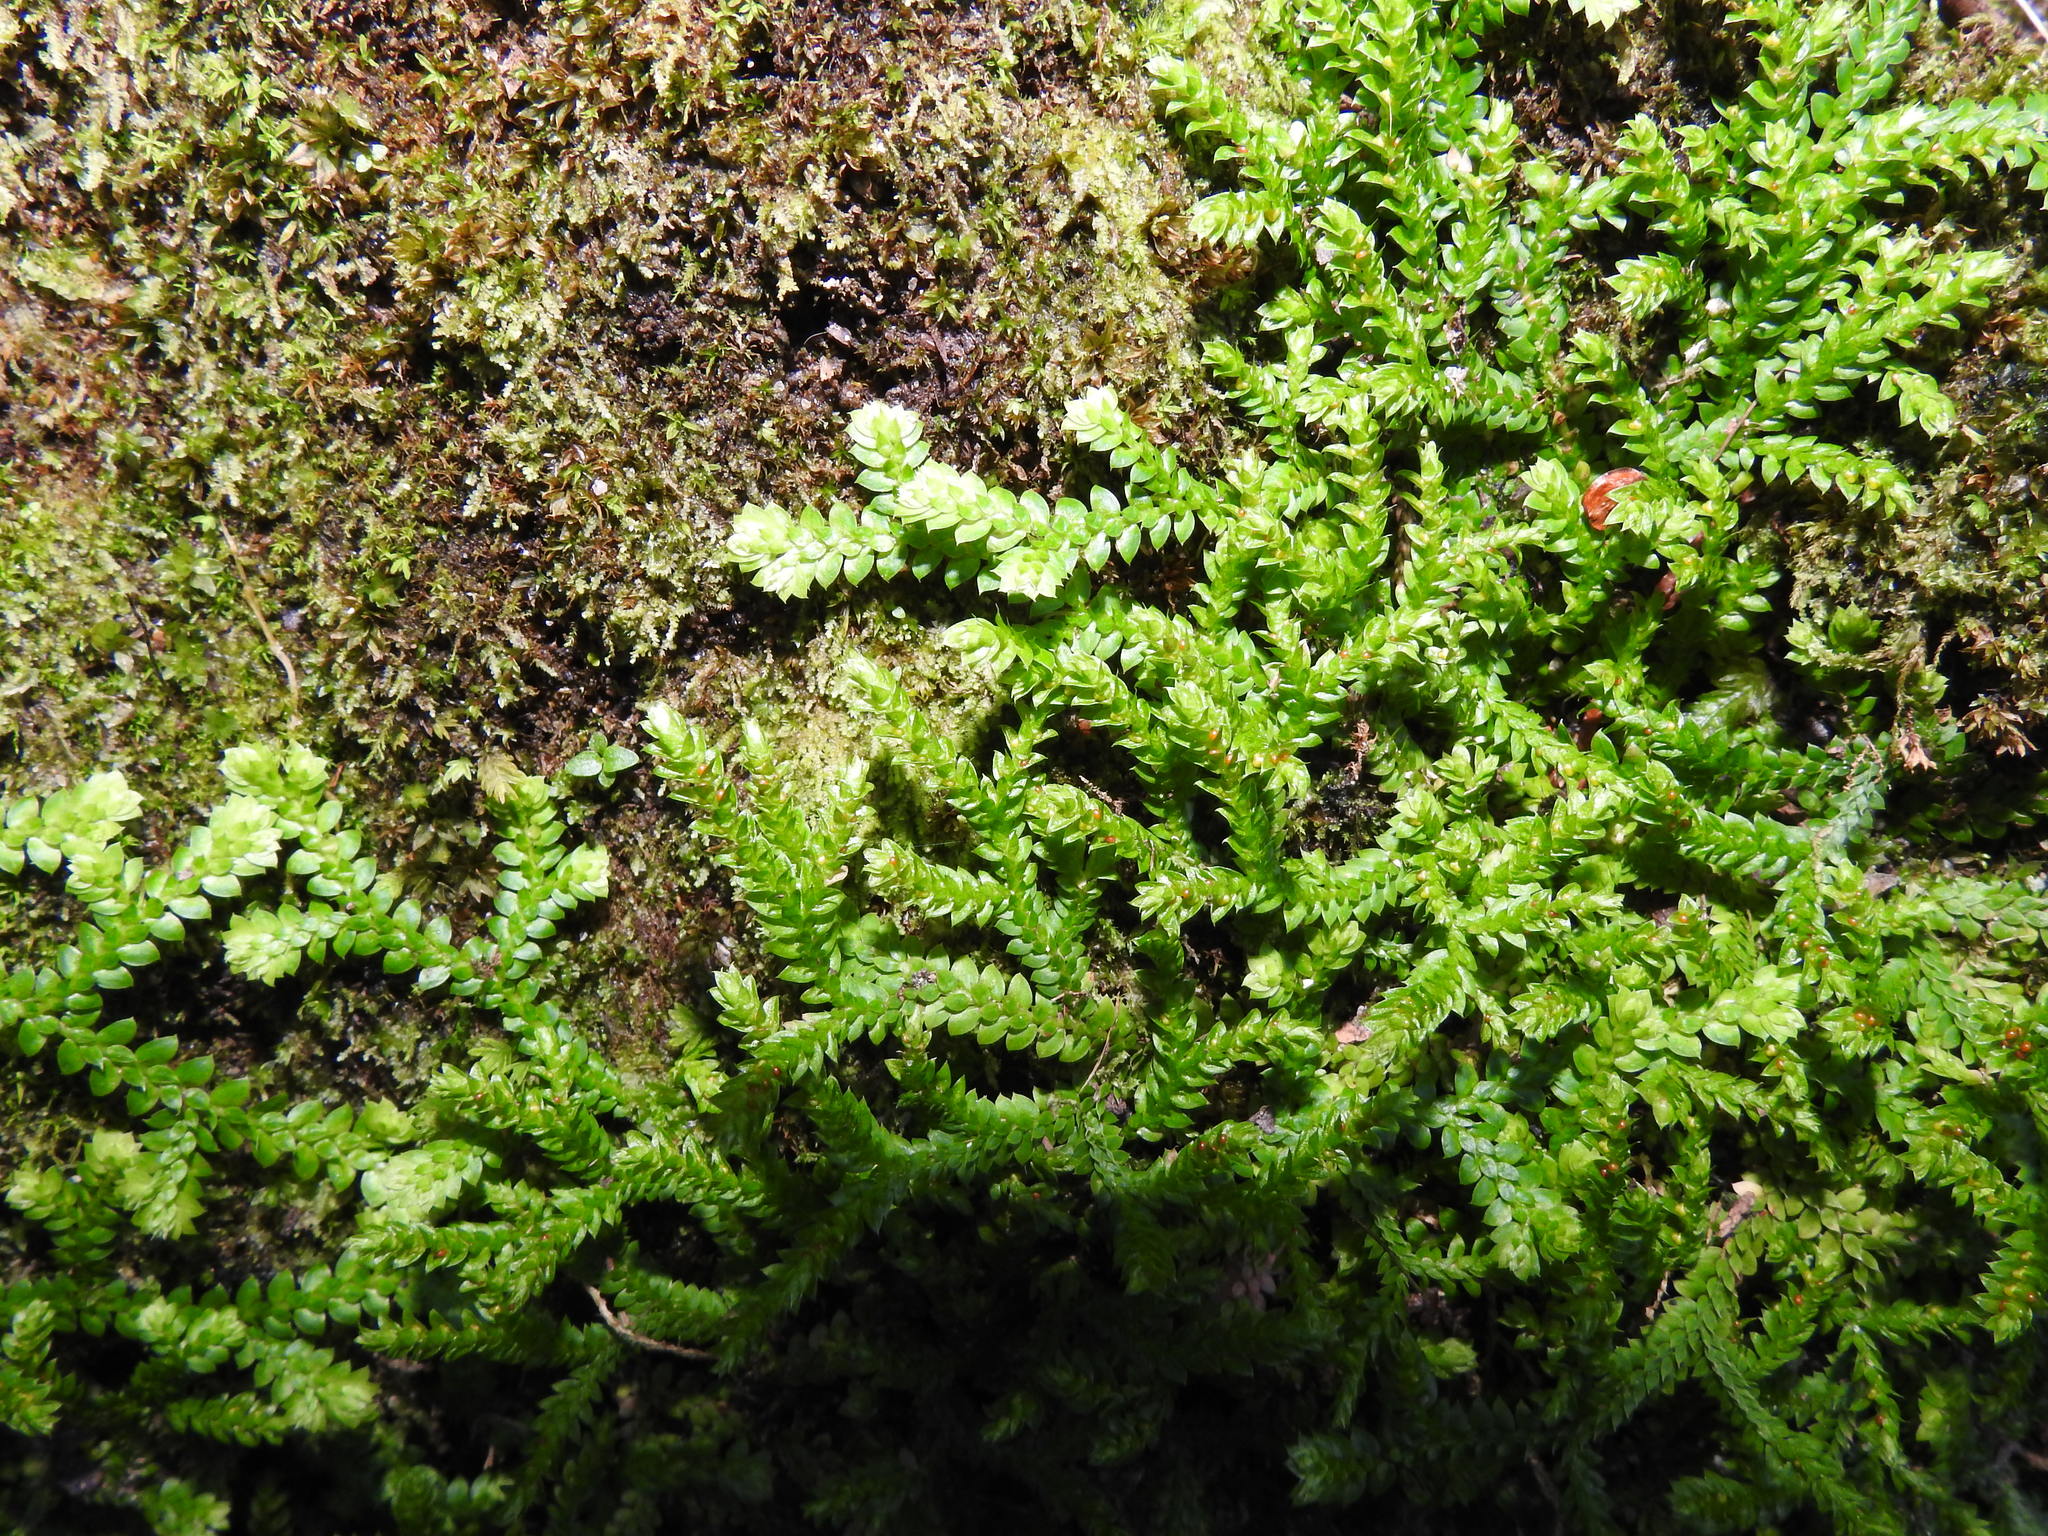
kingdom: Plantae
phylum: Tracheophyta
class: Lycopodiopsida
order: Selaginellales
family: Selaginellaceae
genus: Selaginella
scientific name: Selaginella denticulata
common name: Toothed-leaved clubmoss
